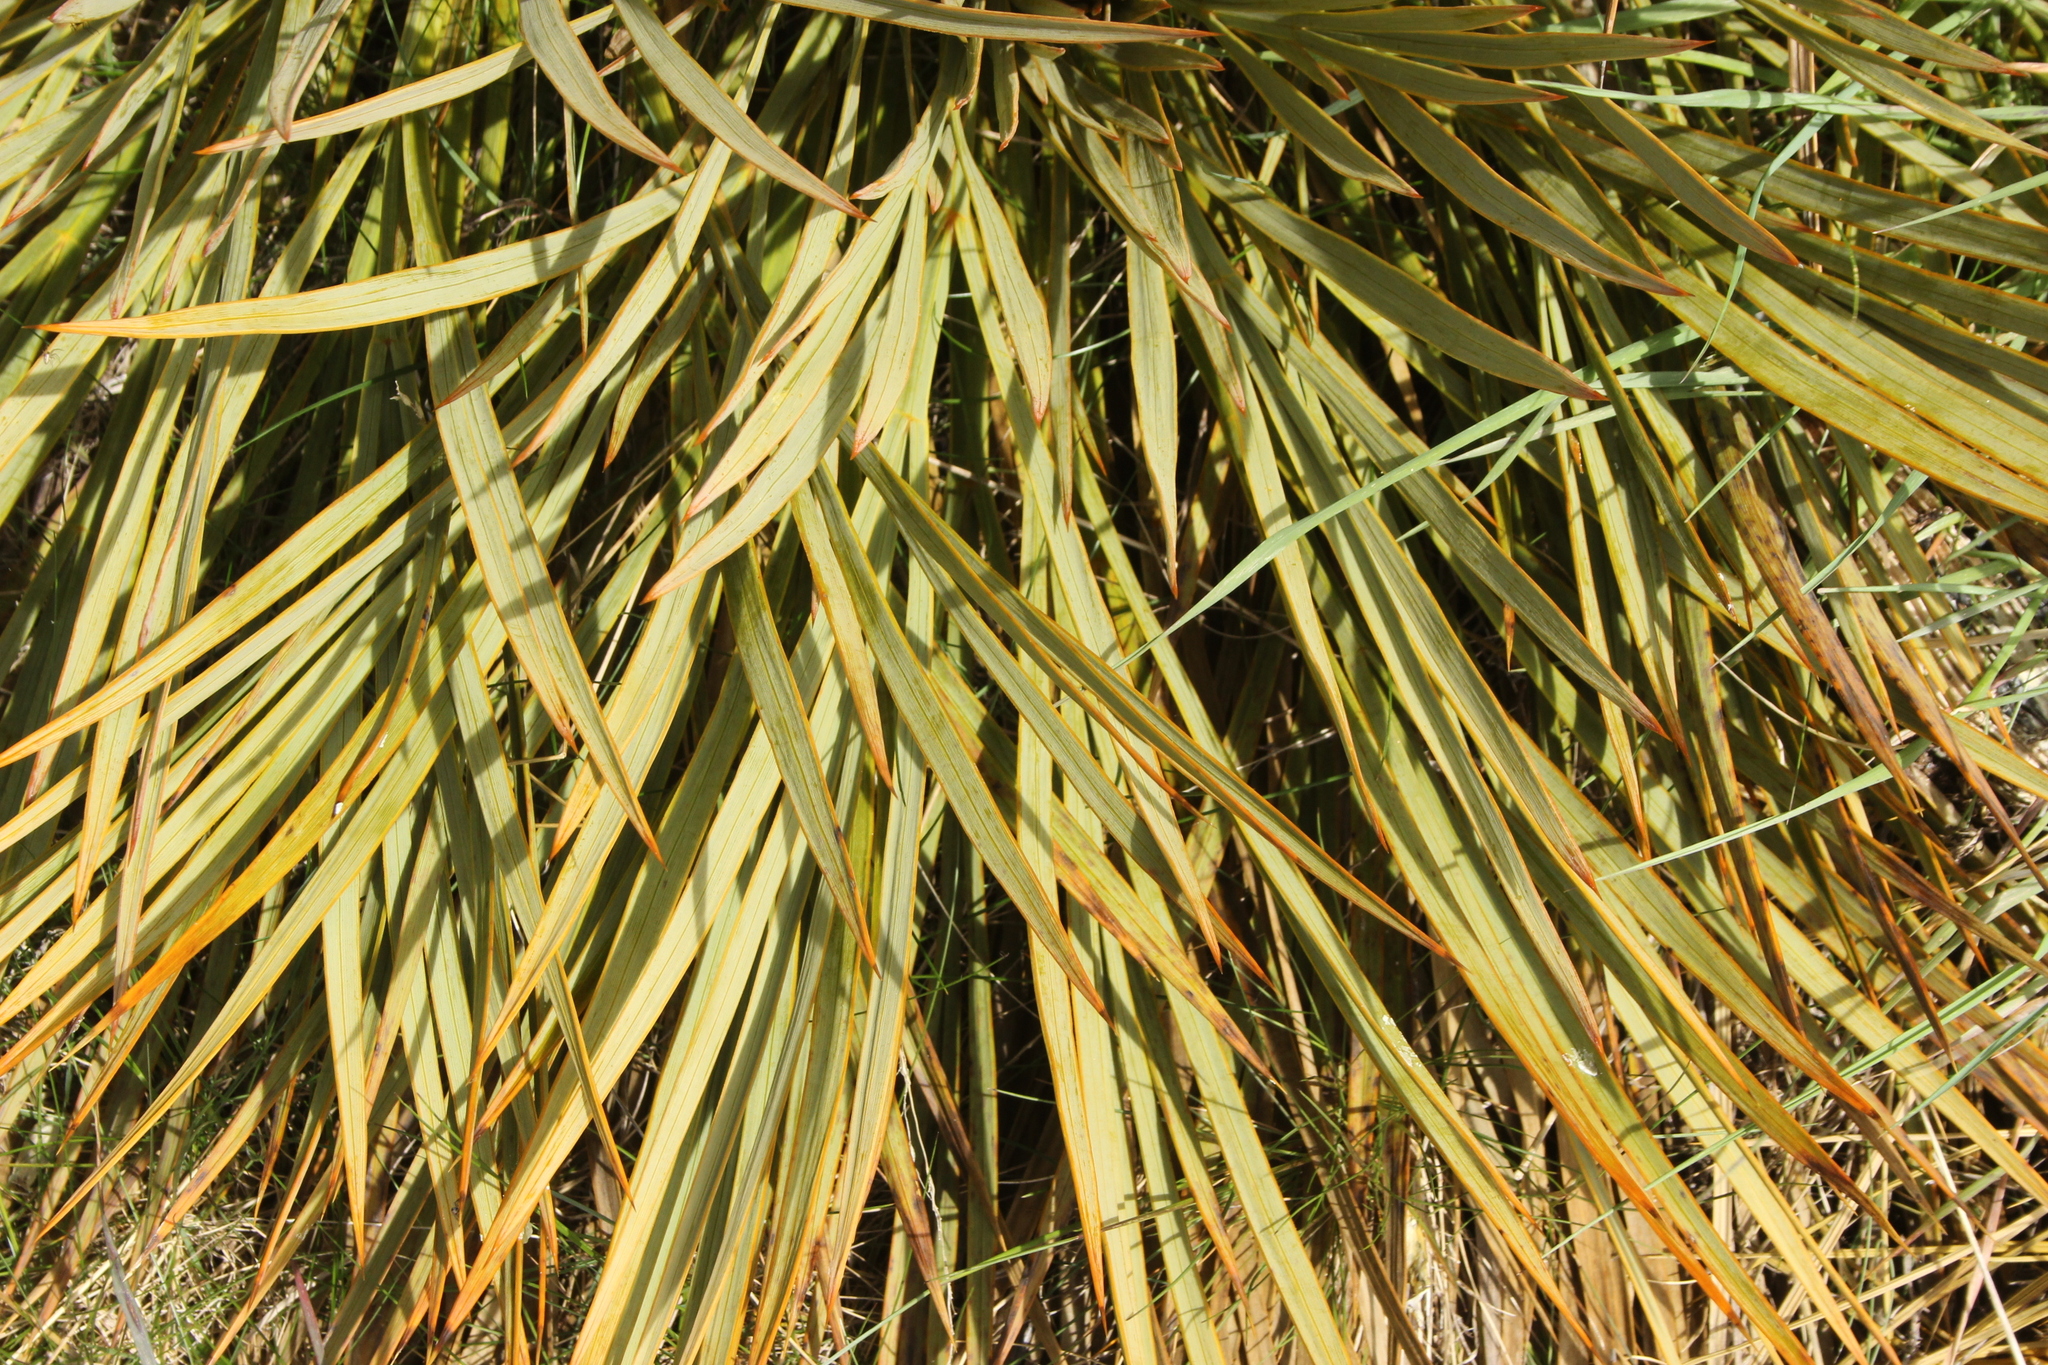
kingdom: Plantae
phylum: Tracheophyta
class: Magnoliopsida
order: Apiales
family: Apiaceae
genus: Aciphylla
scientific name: Aciphylla aurea
